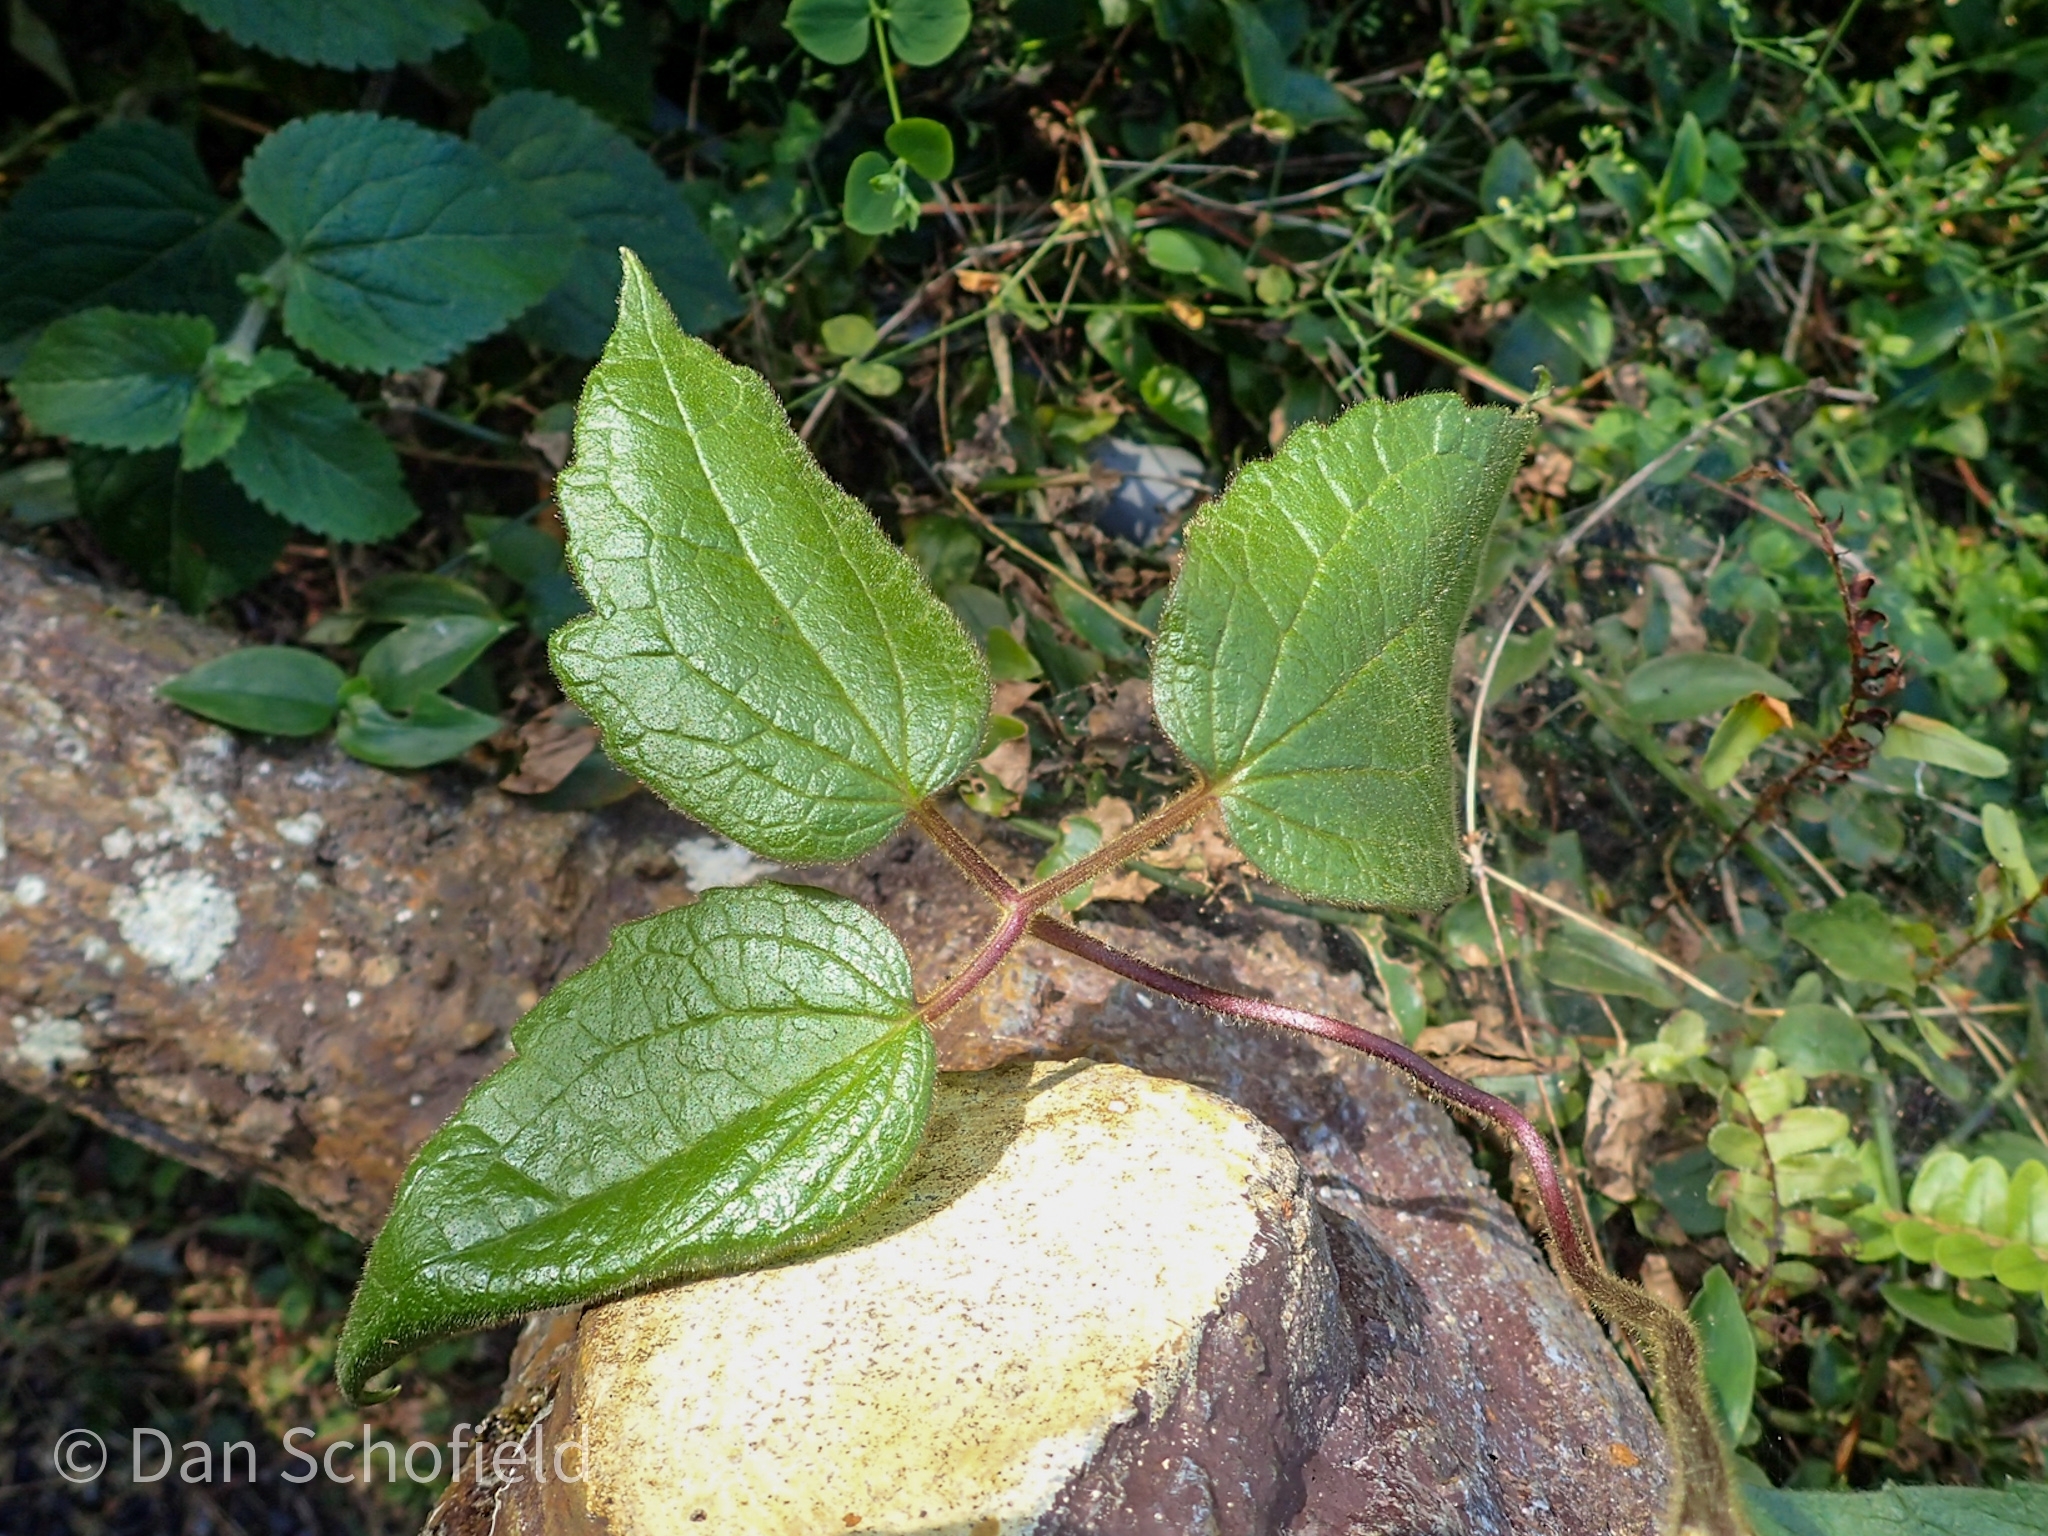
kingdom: Plantae
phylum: Tracheophyta
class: Magnoliopsida
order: Ranunculales
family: Ranunculaceae
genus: Clematis
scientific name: Clematis leschenaultiana
